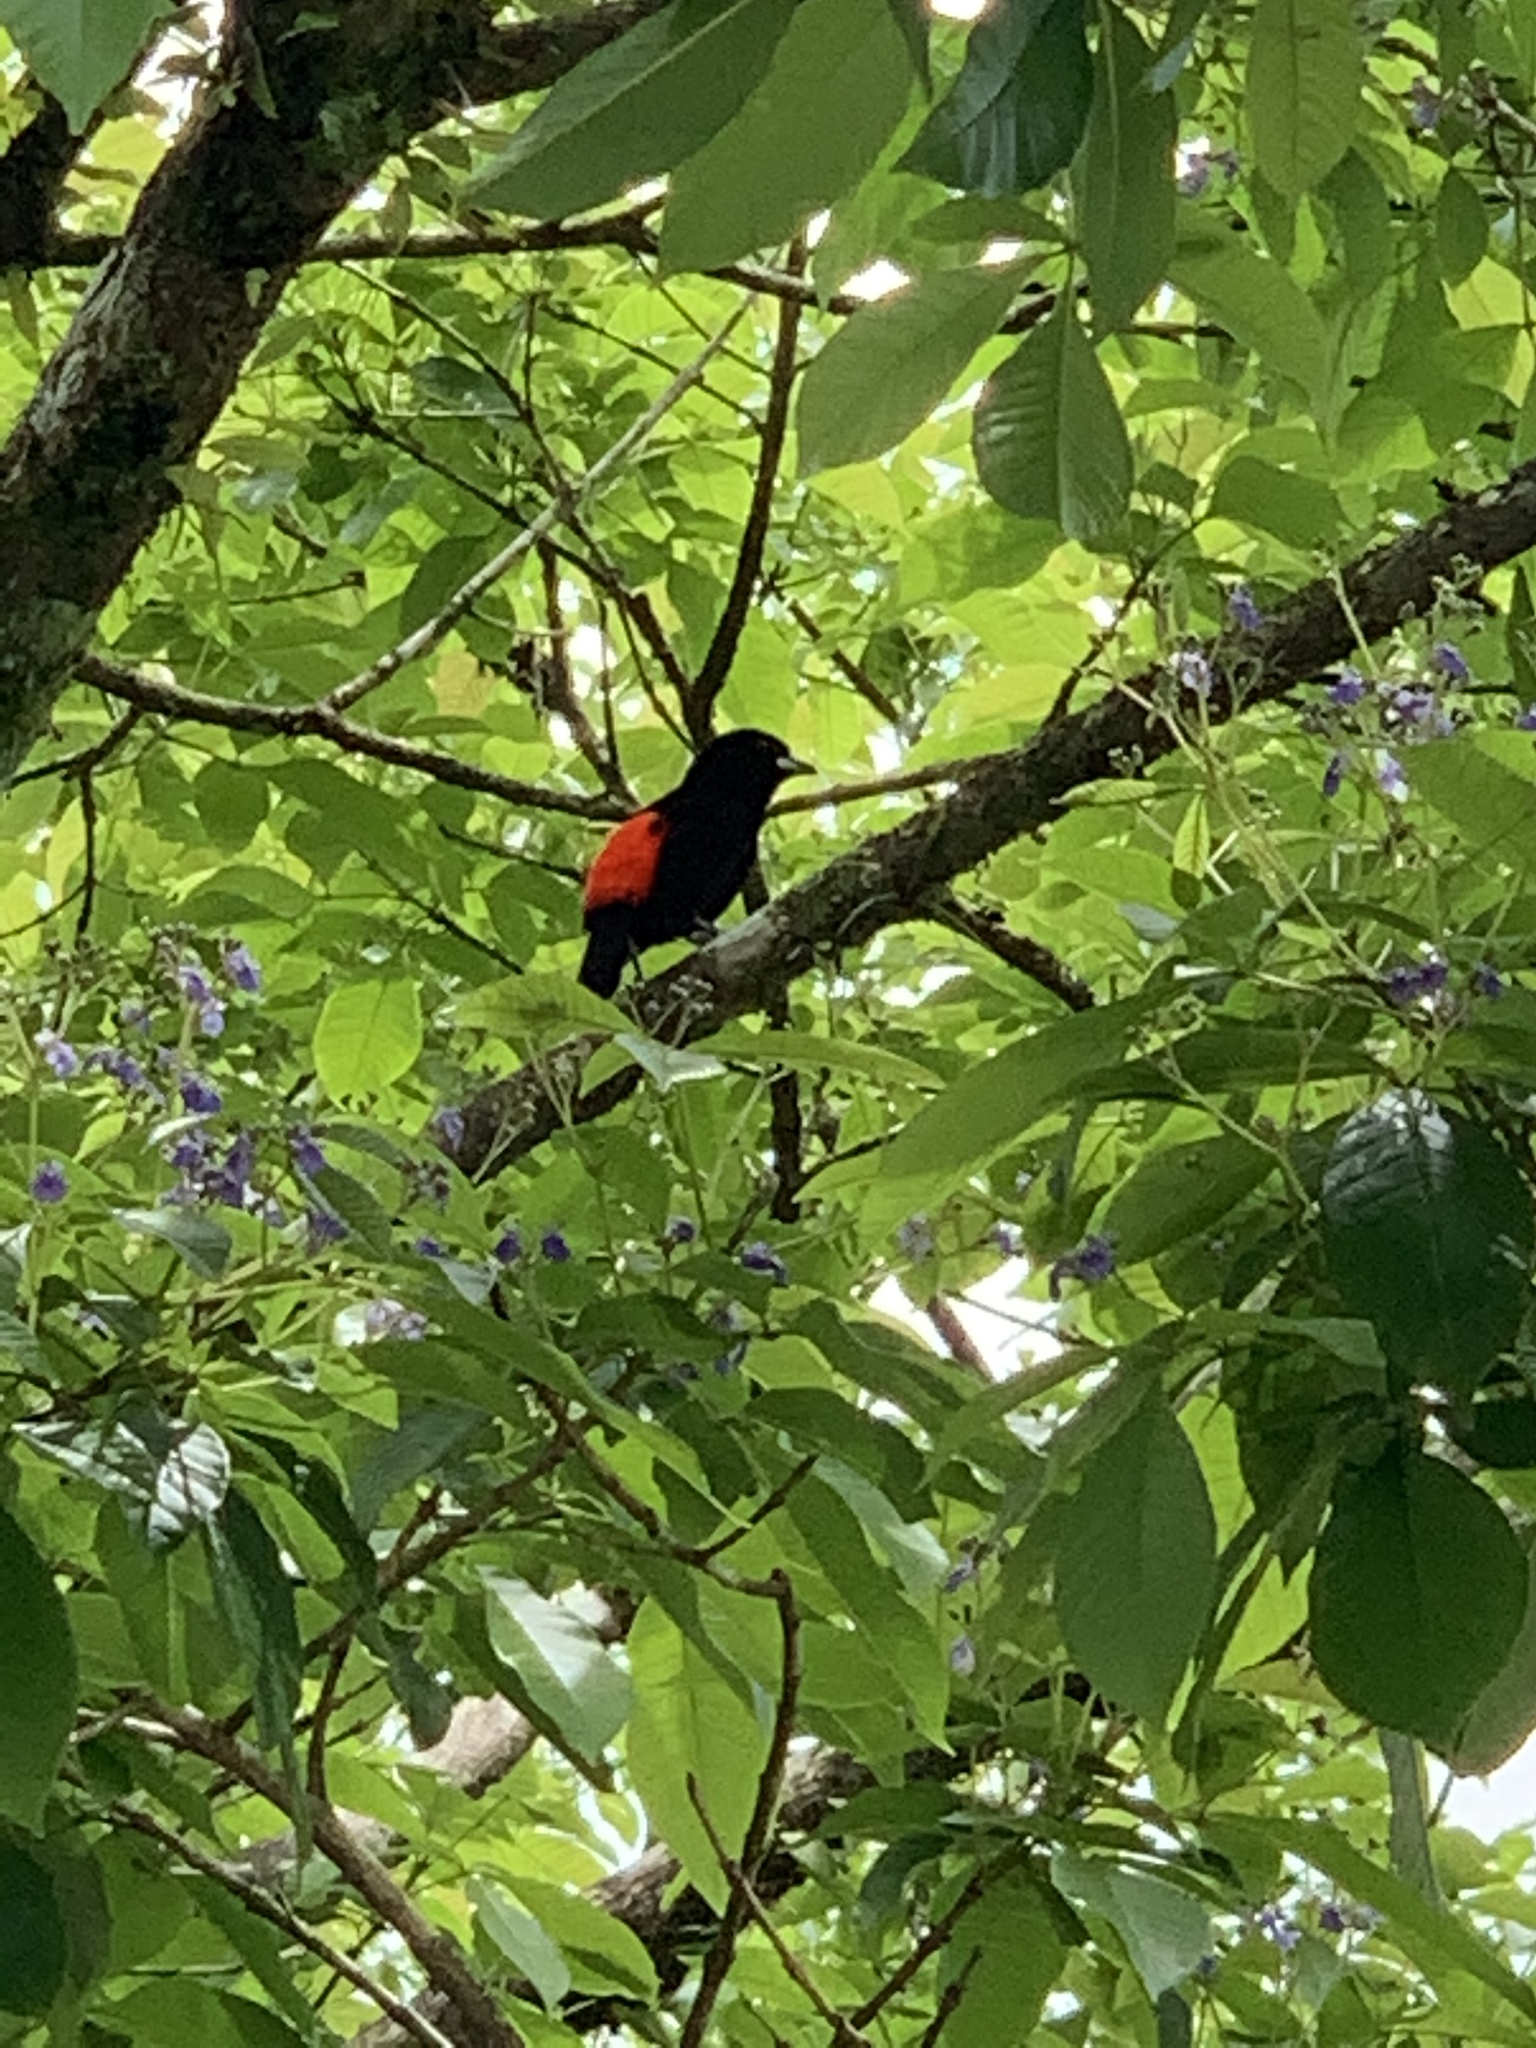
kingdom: Animalia
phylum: Chordata
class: Aves
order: Passeriformes
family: Thraupidae
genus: Ramphocelus
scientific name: Ramphocelus passerinii
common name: Passerini's tanager
